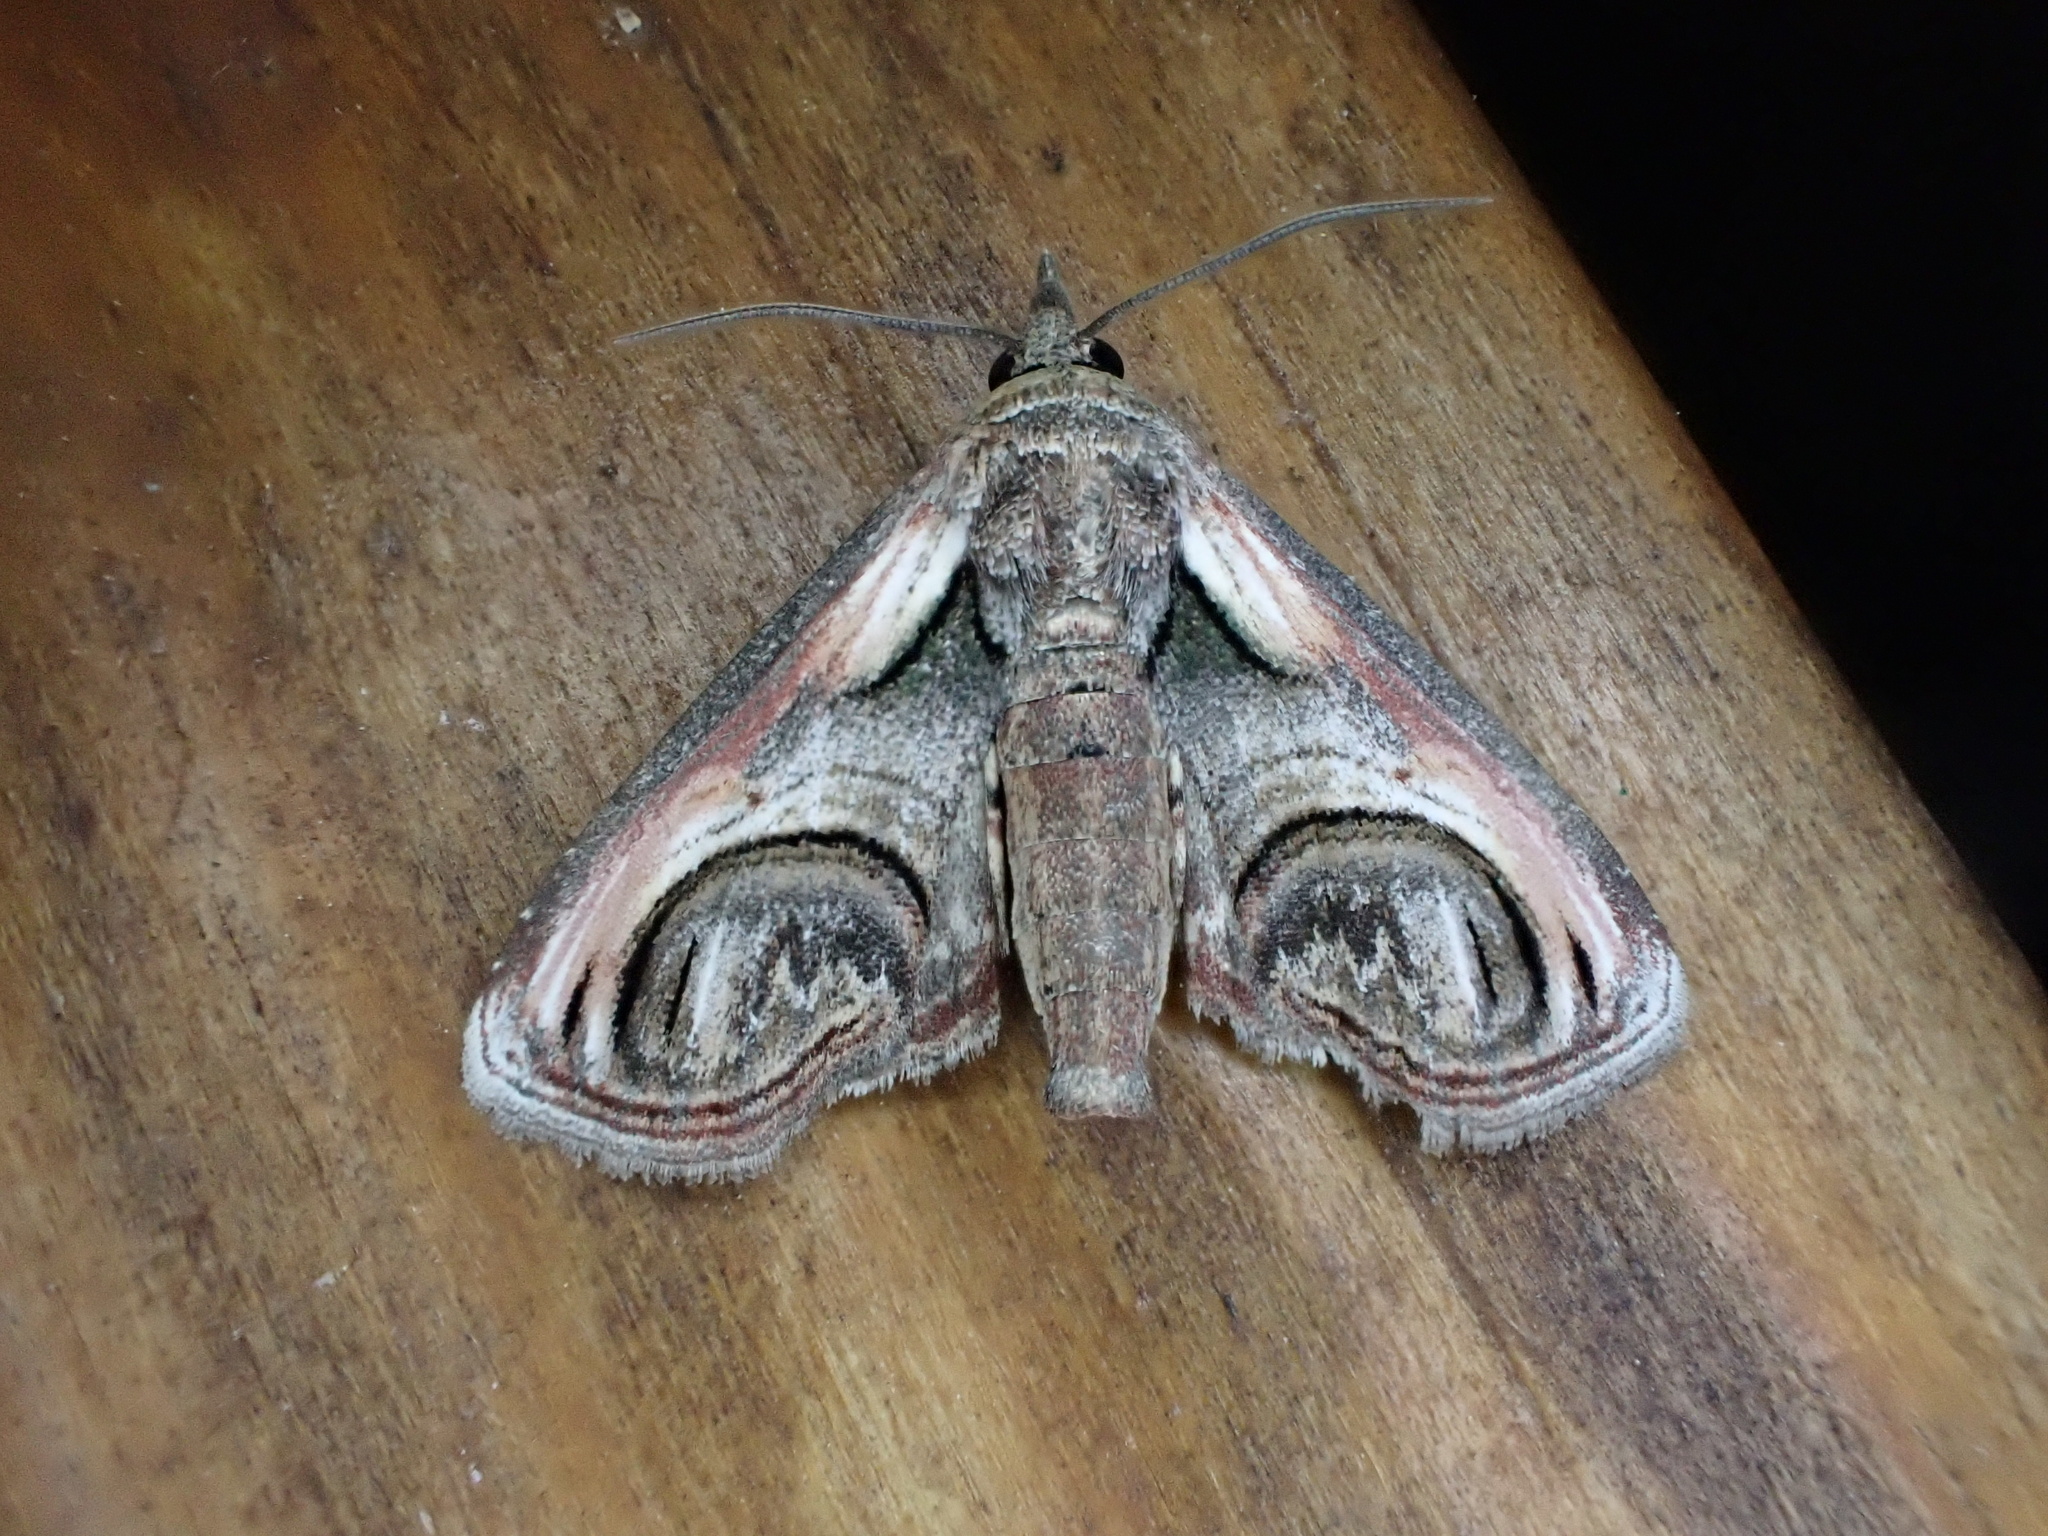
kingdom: Animalia
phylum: Arthropoda
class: Insecta
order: Lepidoptera
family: Euteliidae
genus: Paectes
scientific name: Paectes oculatrix
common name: Eyed paectes moth
